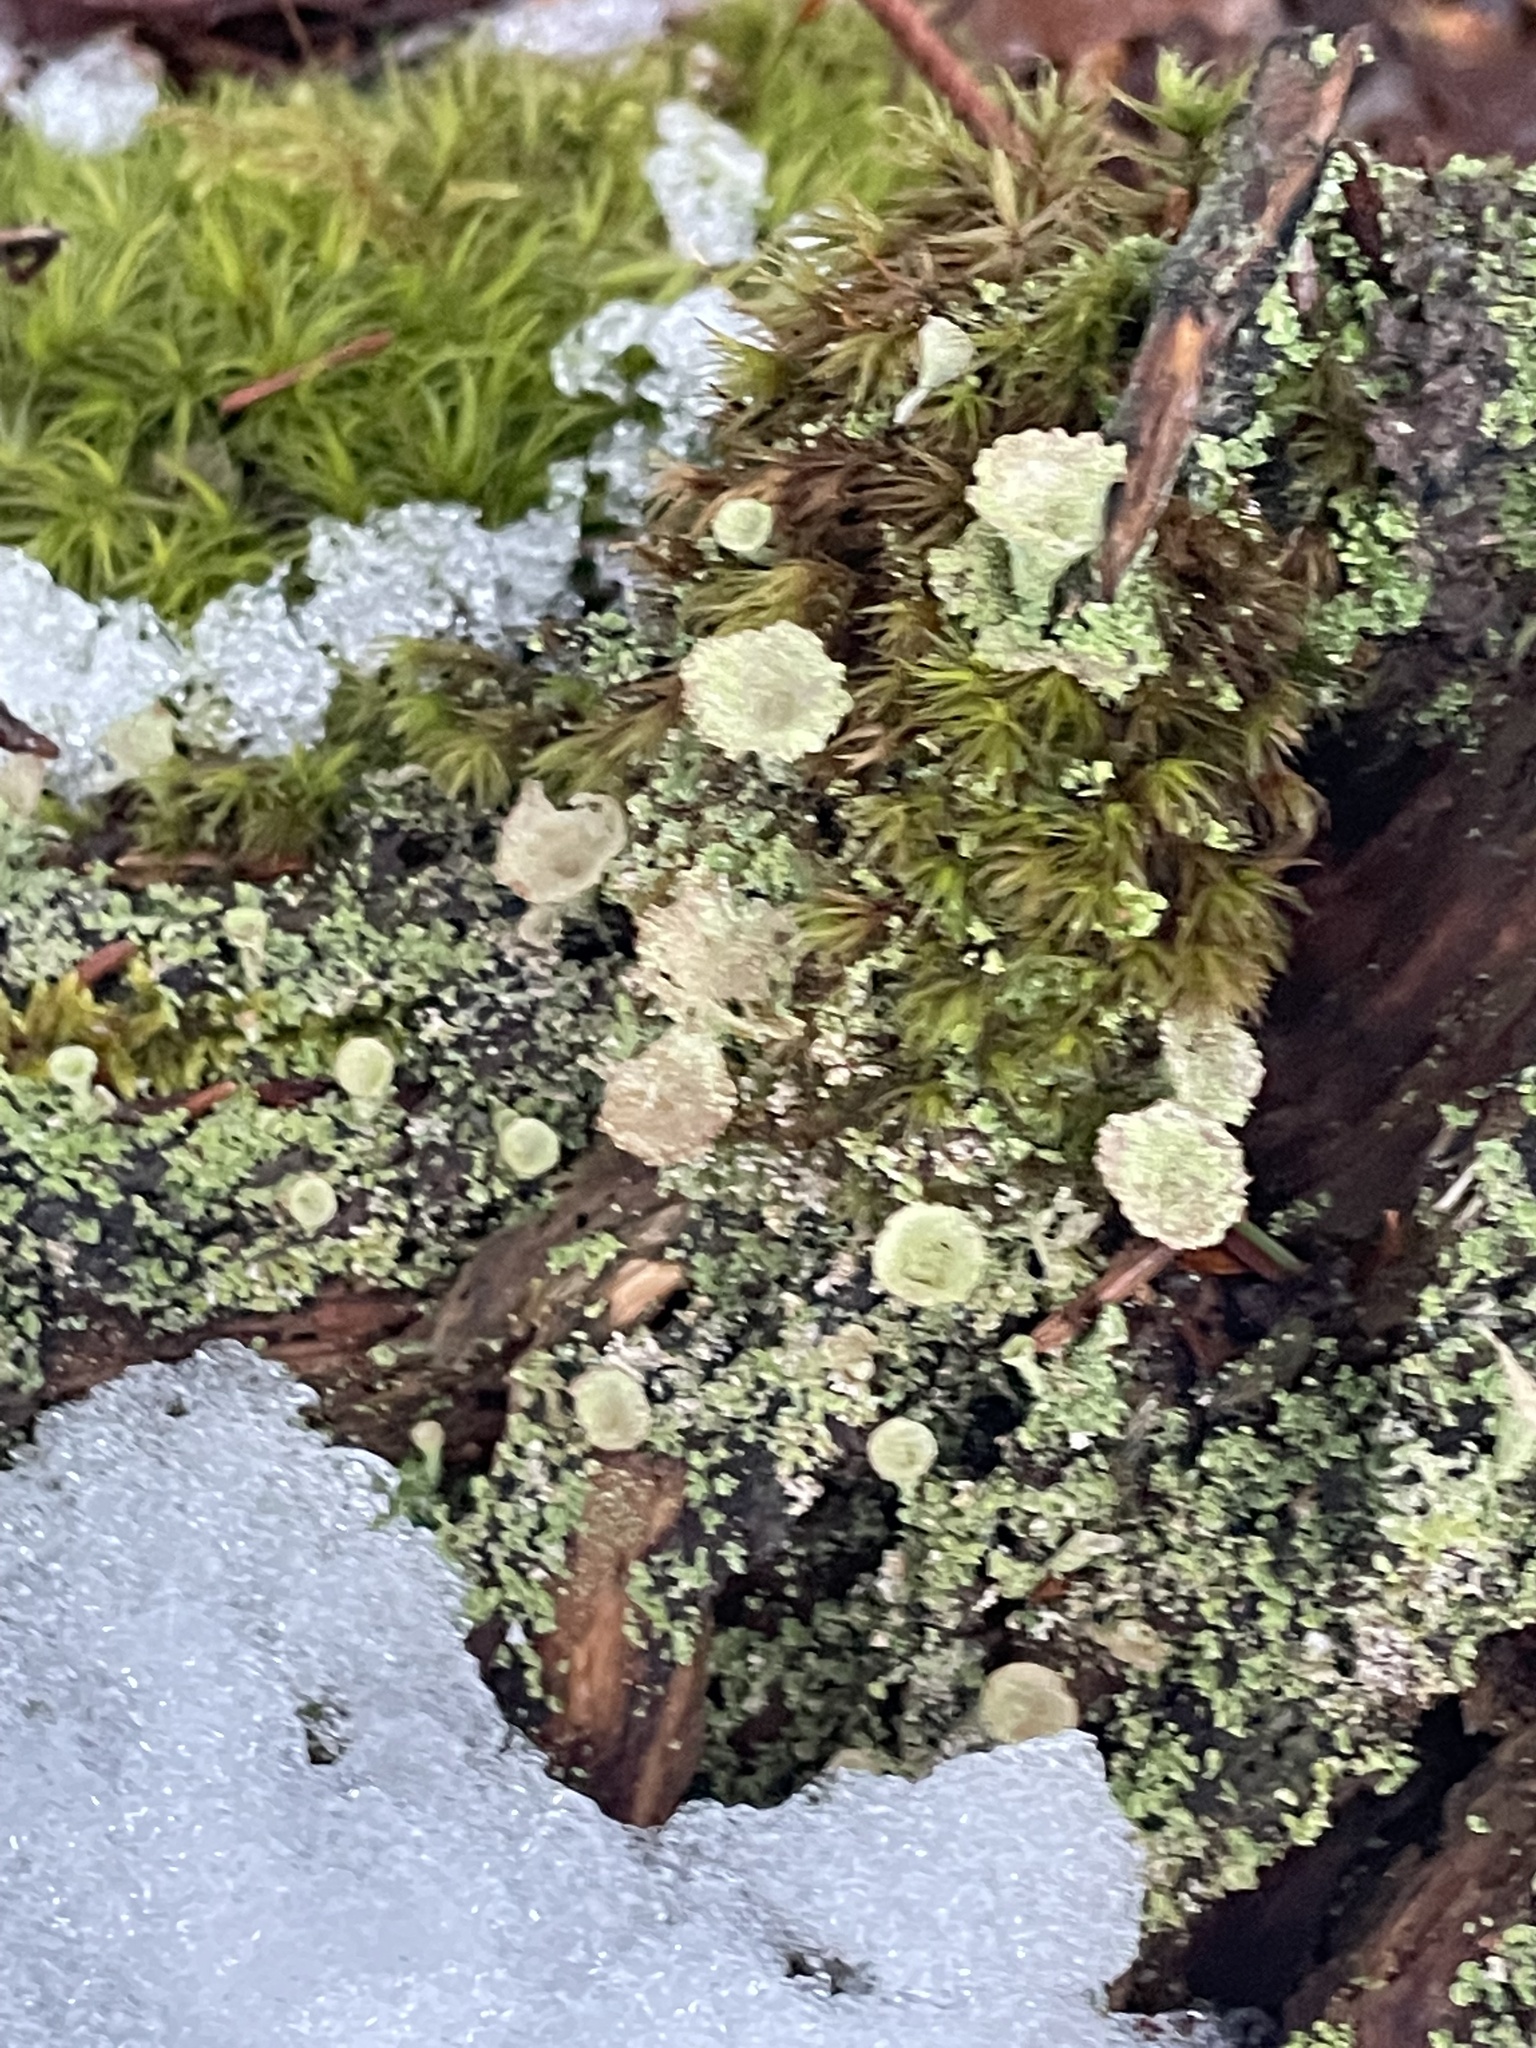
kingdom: Fungi
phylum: Ascomycota
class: Lecanoromycetes
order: Lecanorales
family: Cladoniaceae
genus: Cladonia
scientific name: Cladonia pyxidata
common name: Pebbled pixie cup
